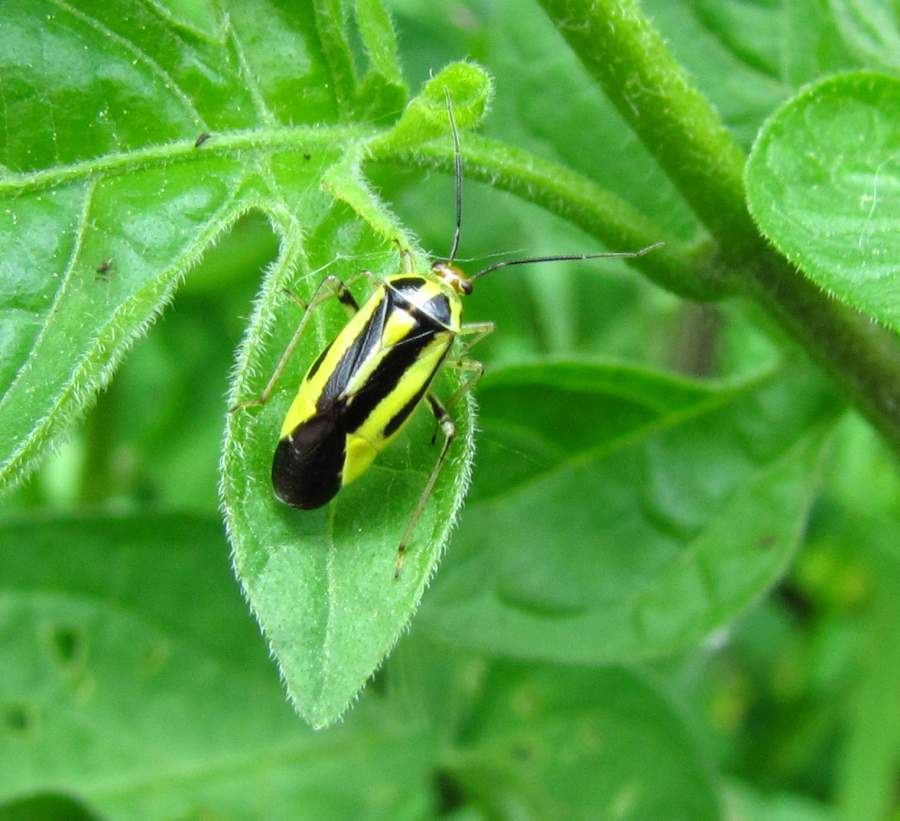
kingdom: Animalia
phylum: Arthropoda
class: Insecta
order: Hemiptera
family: Miridae
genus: Poecilocapsus
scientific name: Poecilocapsus lineatus
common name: Four-lined plant bug
